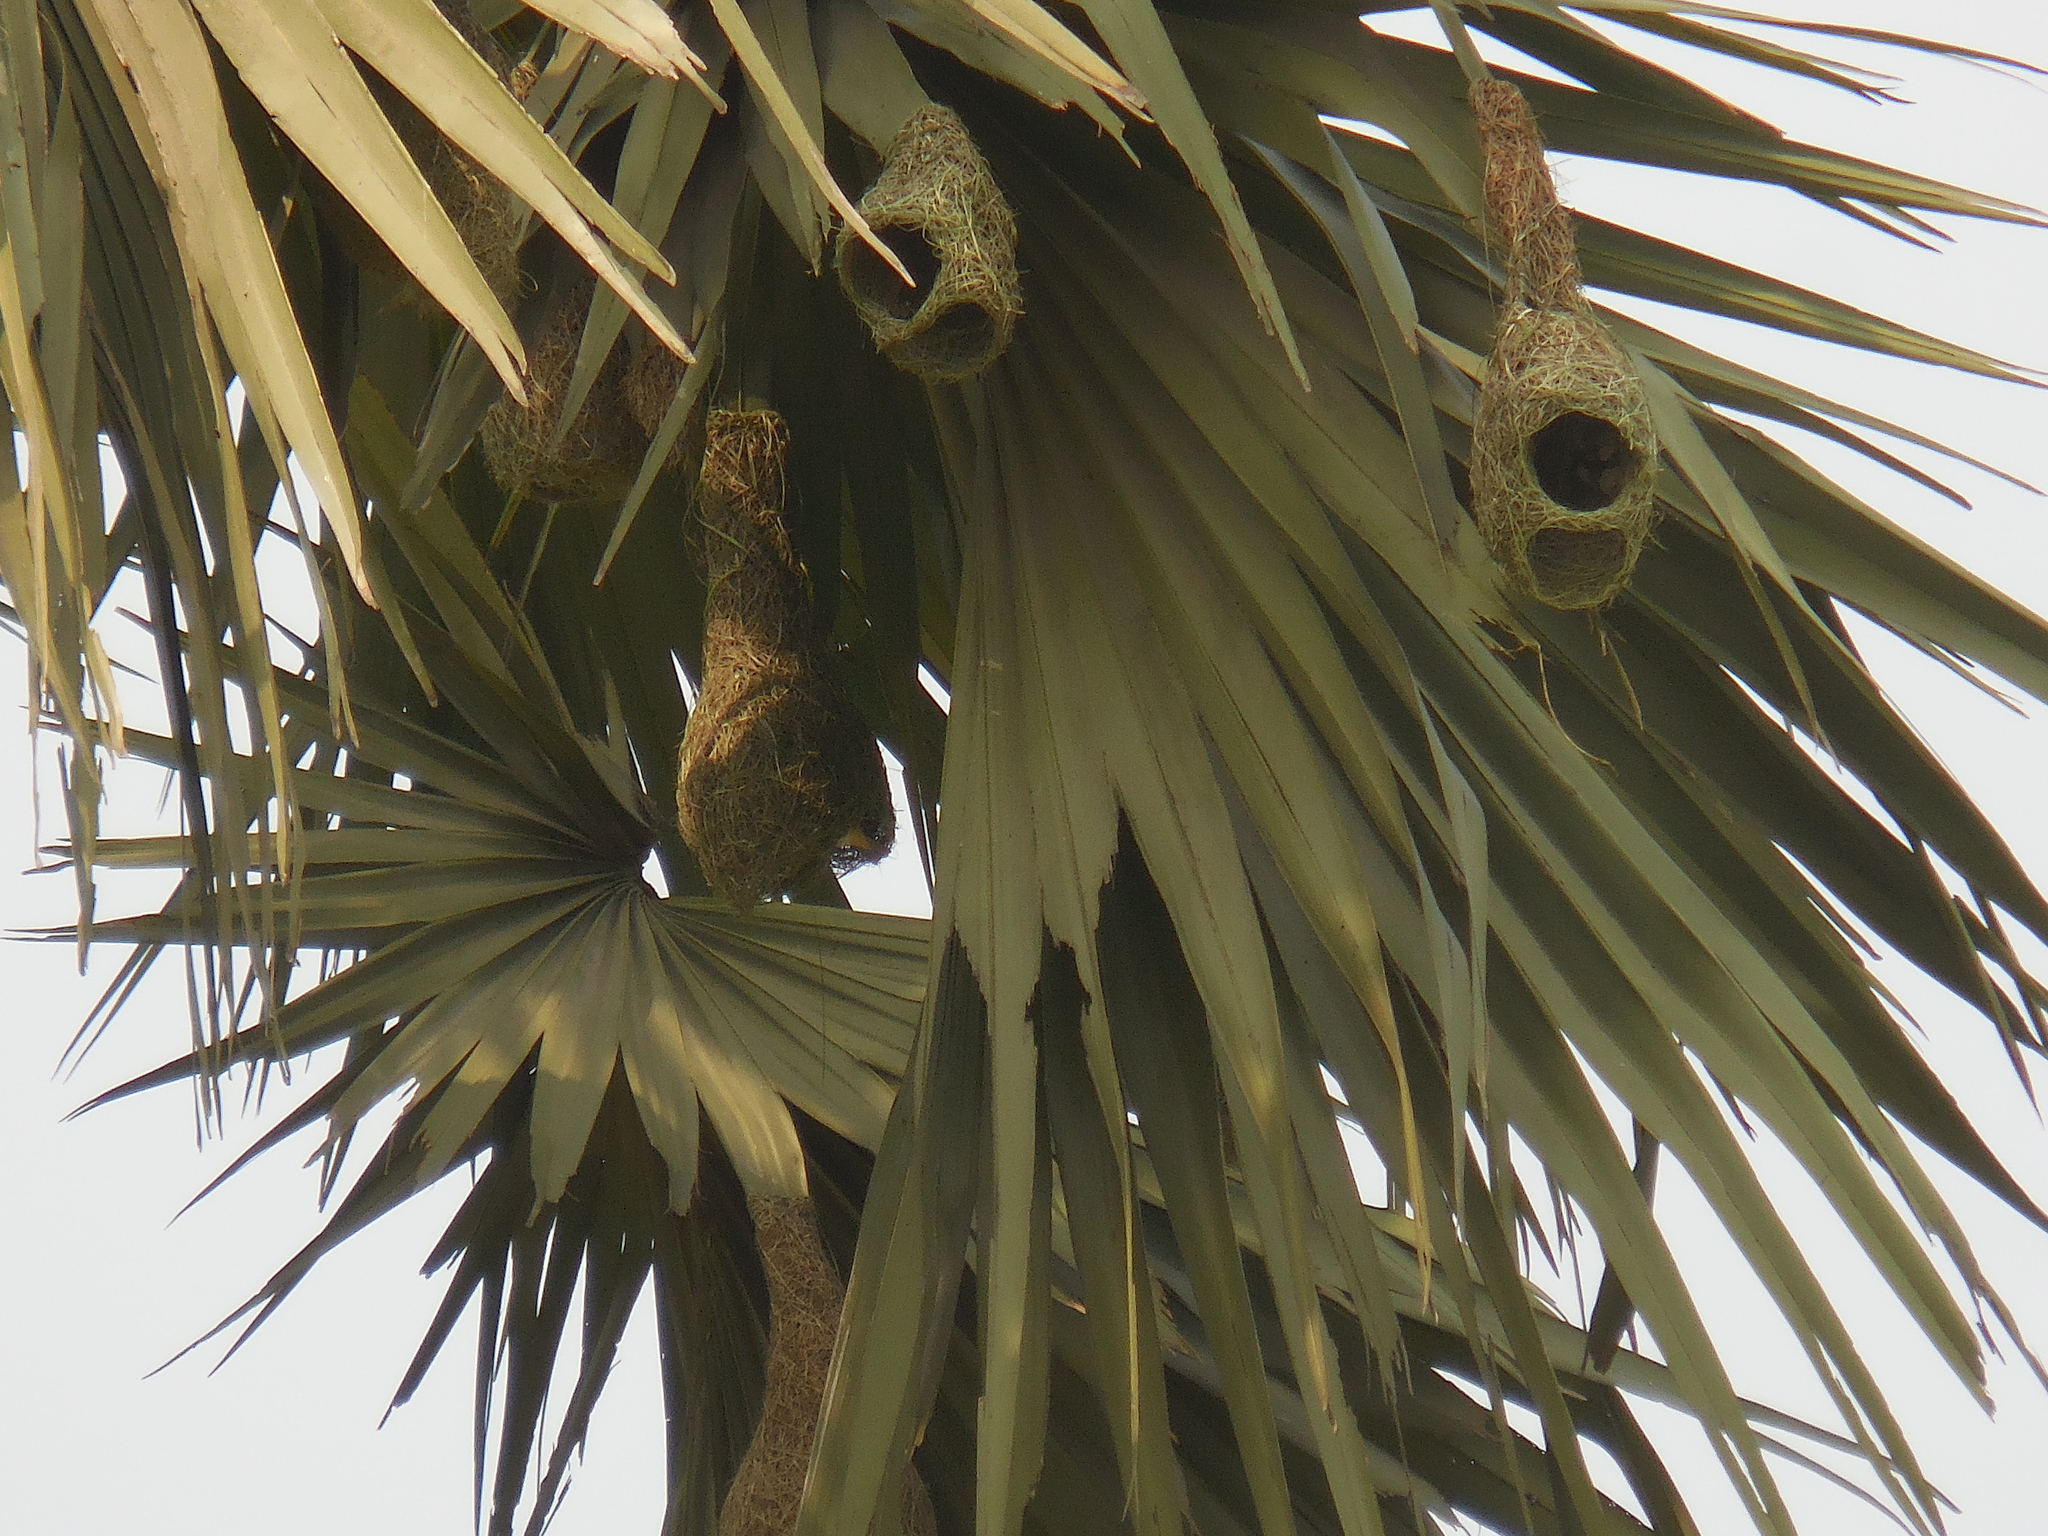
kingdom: Animalia
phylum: Chordata
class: Aves
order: Passeriformes
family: Ploceidae
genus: Ploceus
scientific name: Ploceus philippinus
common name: Baya weaver
